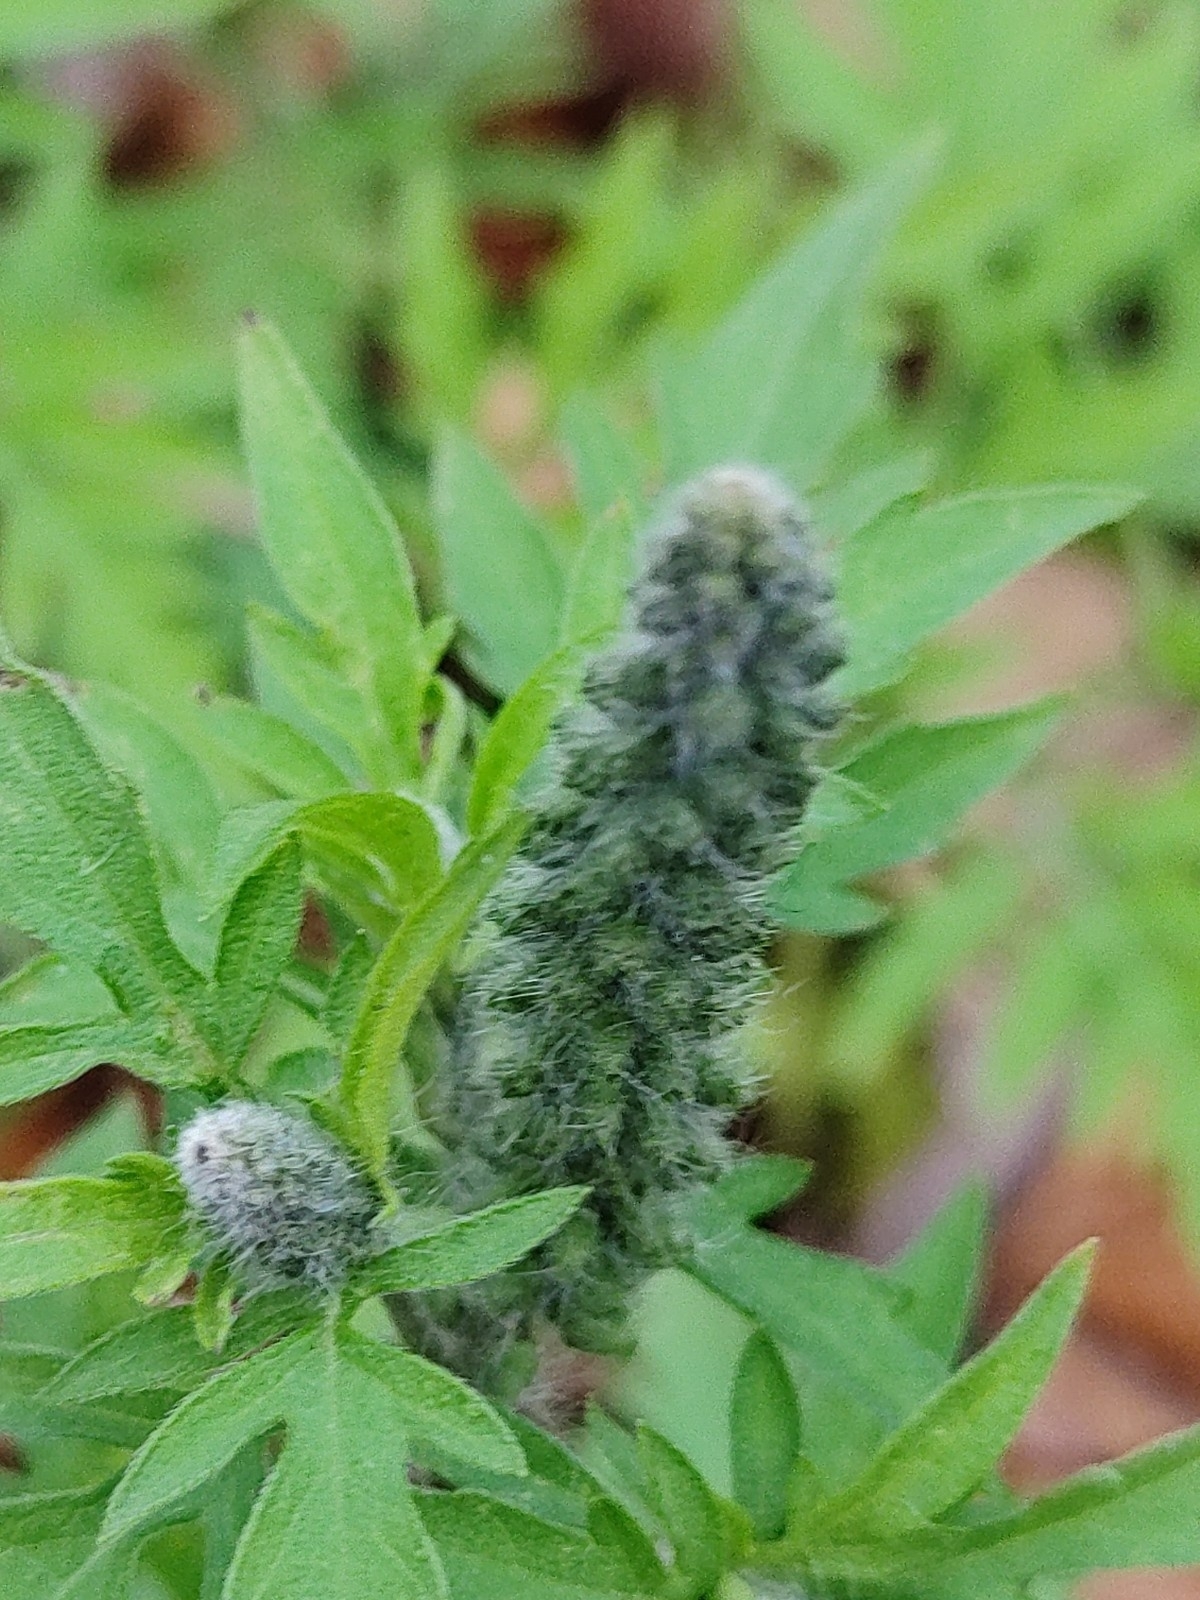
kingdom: Plantae
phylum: Tracheophyta
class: Magnoliopsida
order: Asterales
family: Asteraceae
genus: Ambrosia
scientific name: Ambrosia artemisiifolia
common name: Annual ragweed
